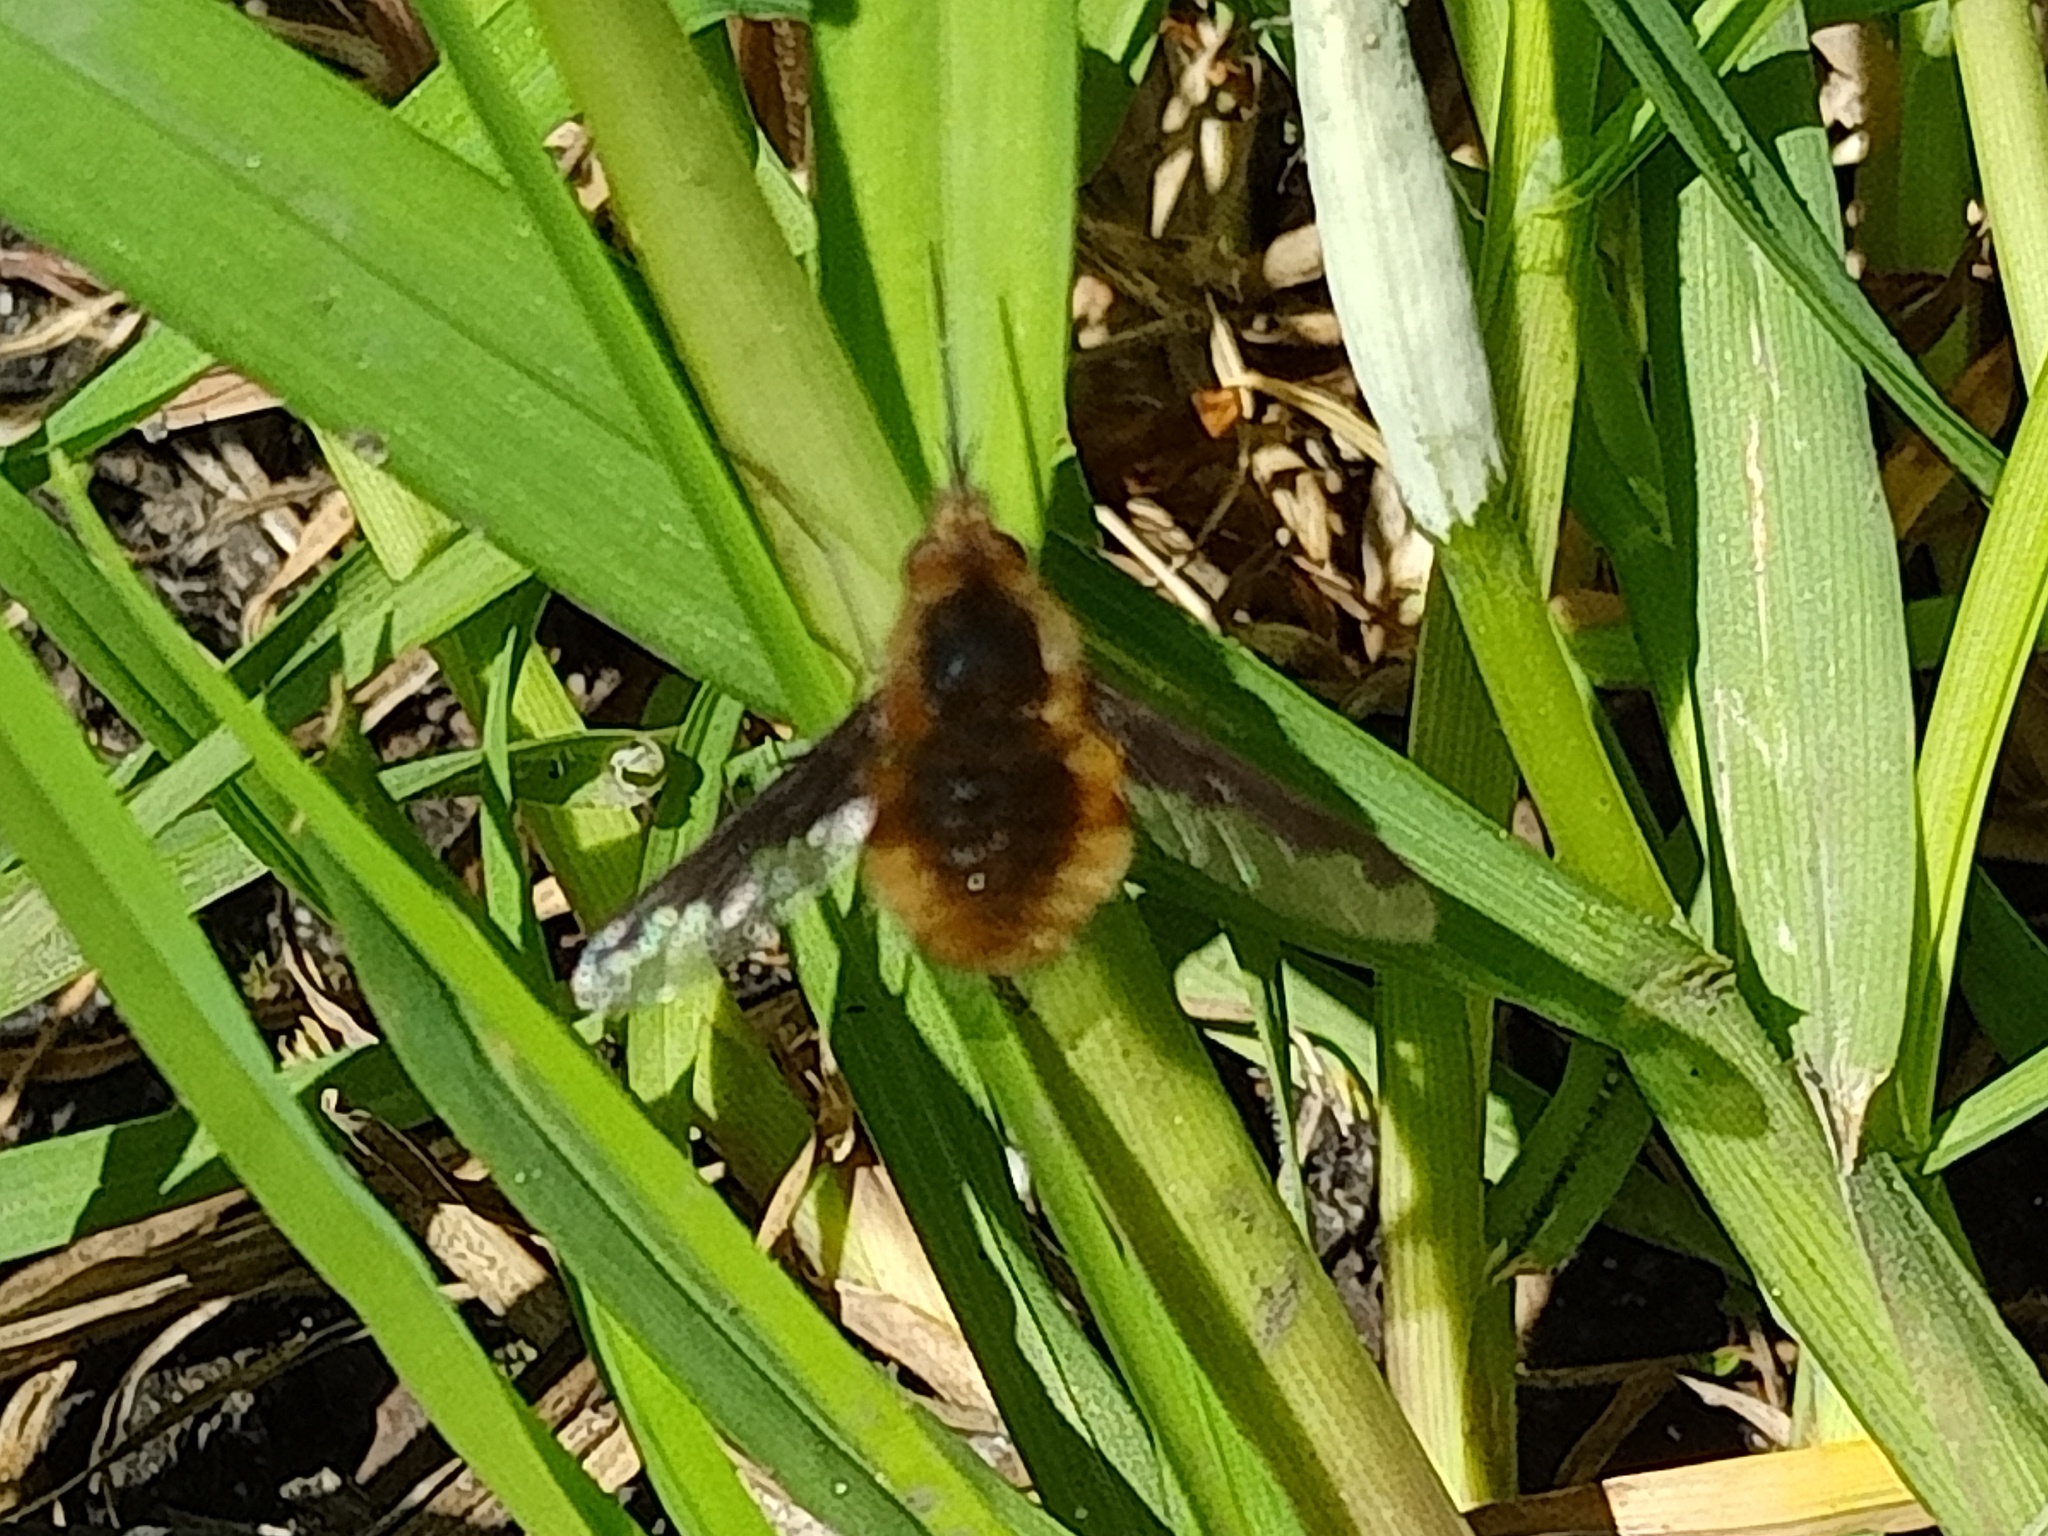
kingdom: Animalia
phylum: Arthropoda
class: Insecta
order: Diptera
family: Bombyliidae
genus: Bombylius
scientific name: Bombylius major
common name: Bee fly
